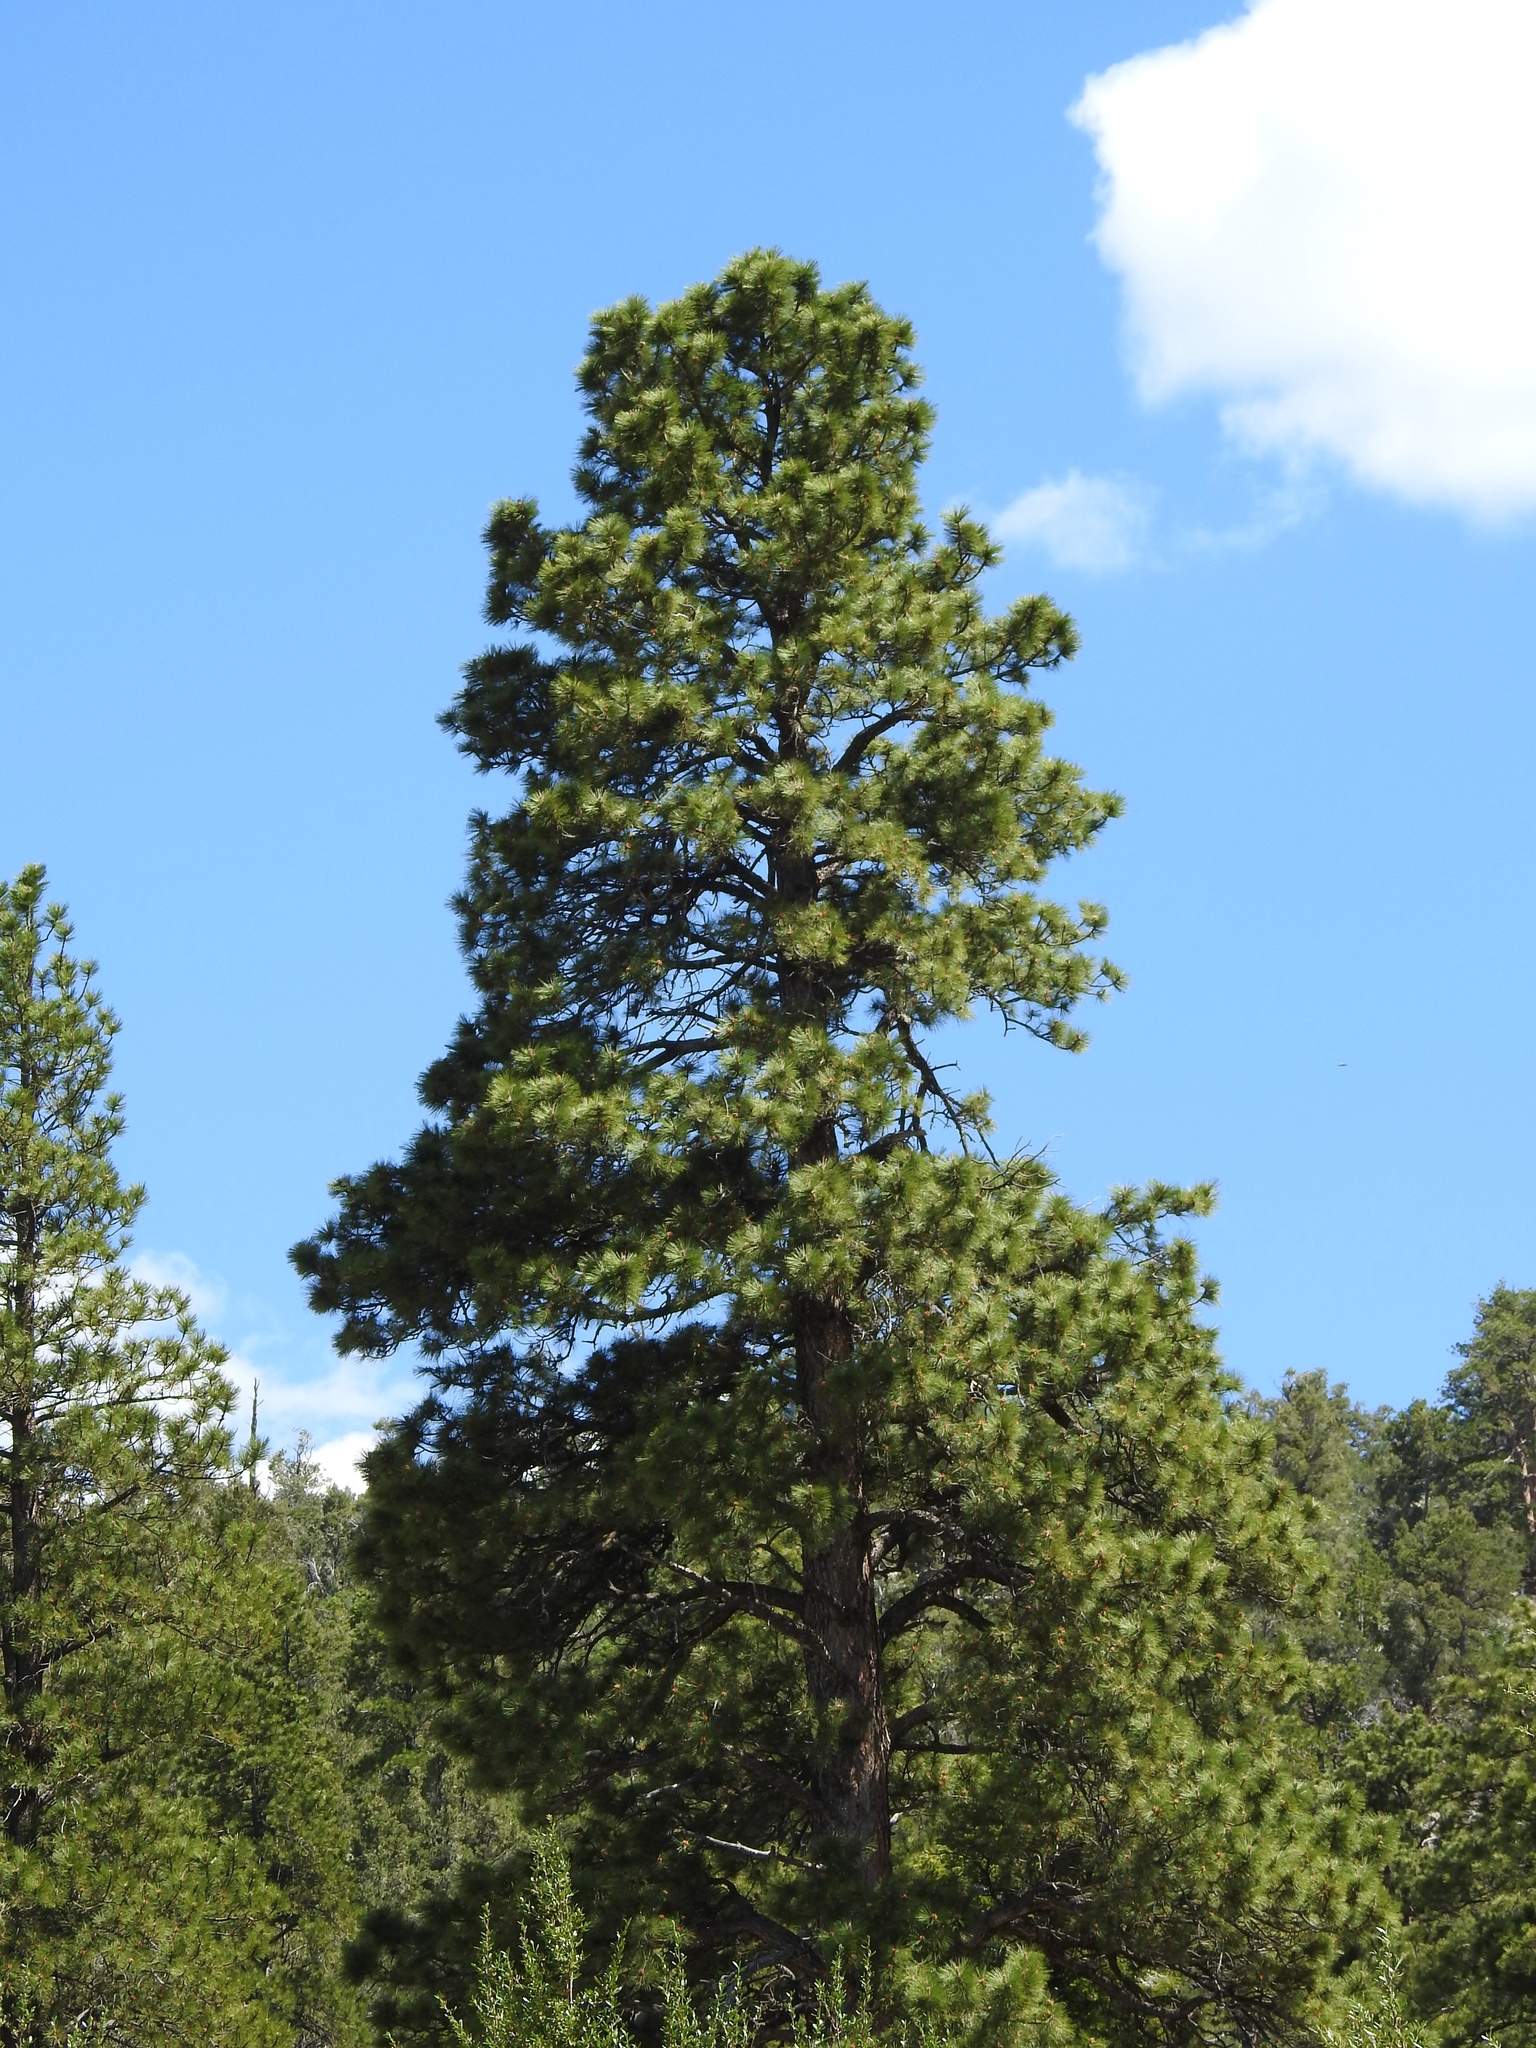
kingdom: Plantae
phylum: Tracheophyta
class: Pinopsida
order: Pinales
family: Pinaceae
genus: Pinus
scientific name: Pinus ponderosa
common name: Western yellow-pine
